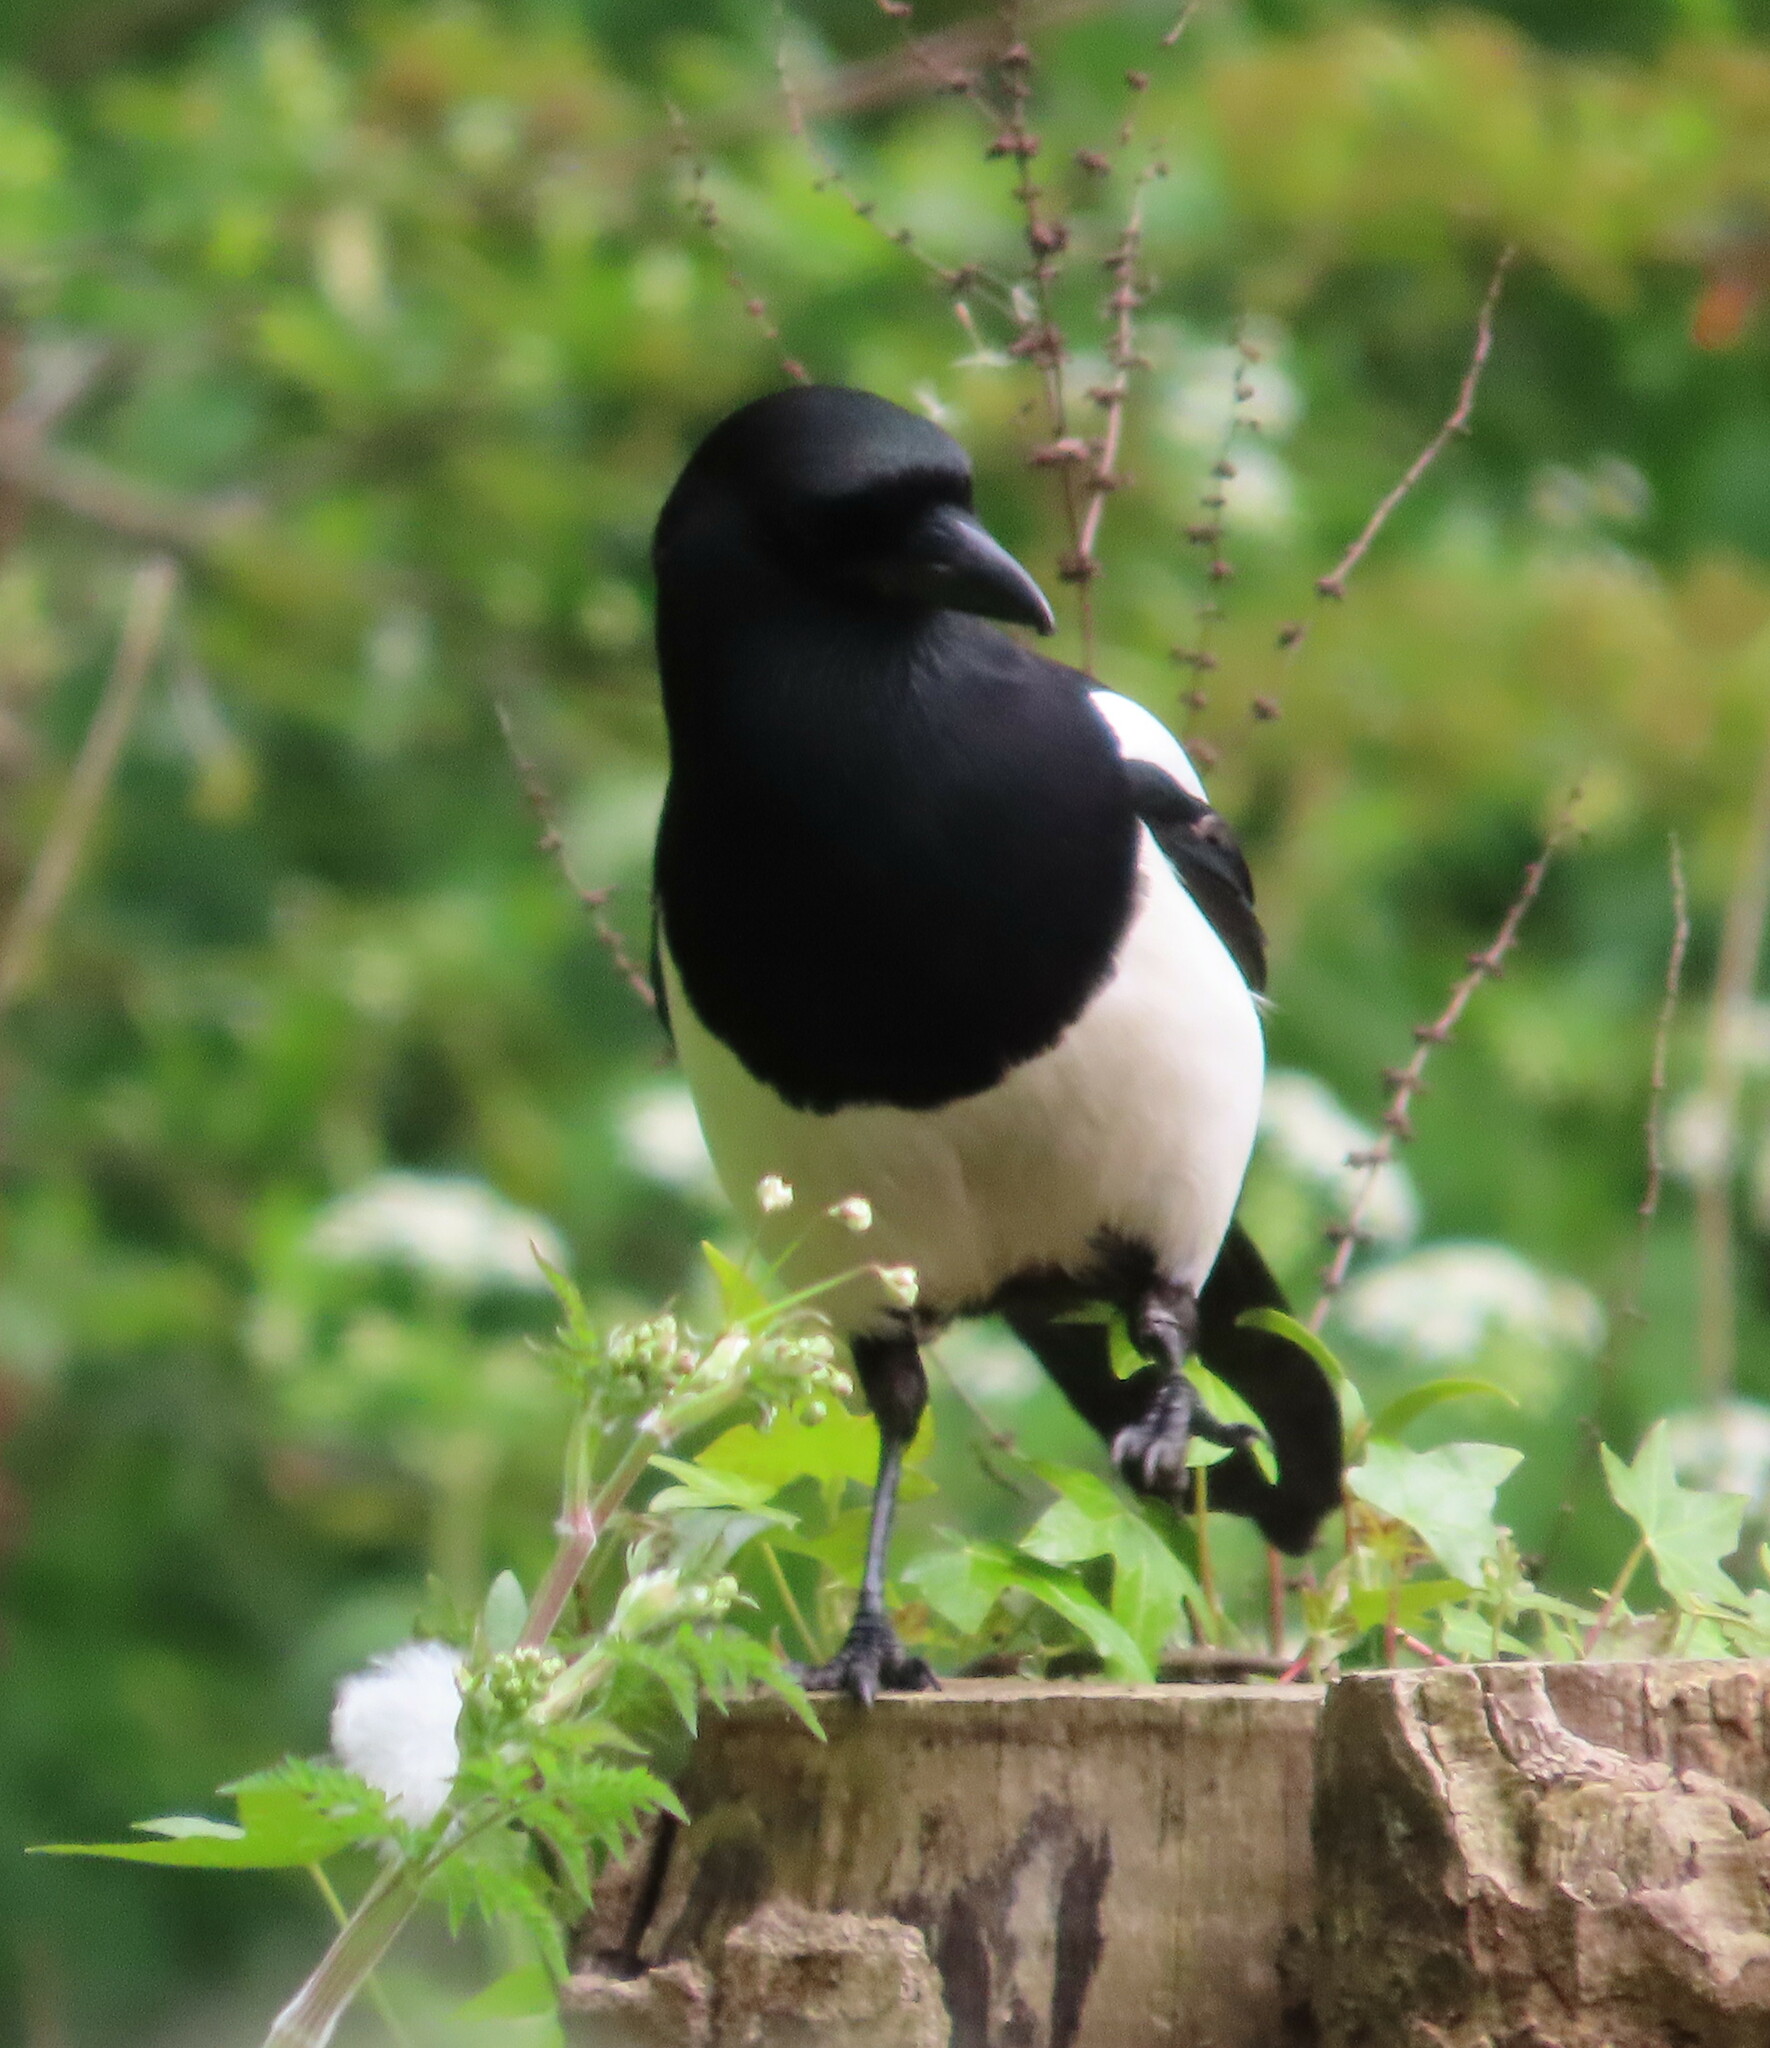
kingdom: Animalia
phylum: Chordata
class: Aves
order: Passeriformes
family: Corvidae
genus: Pica
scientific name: Pica pica
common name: Eurasian magpie
